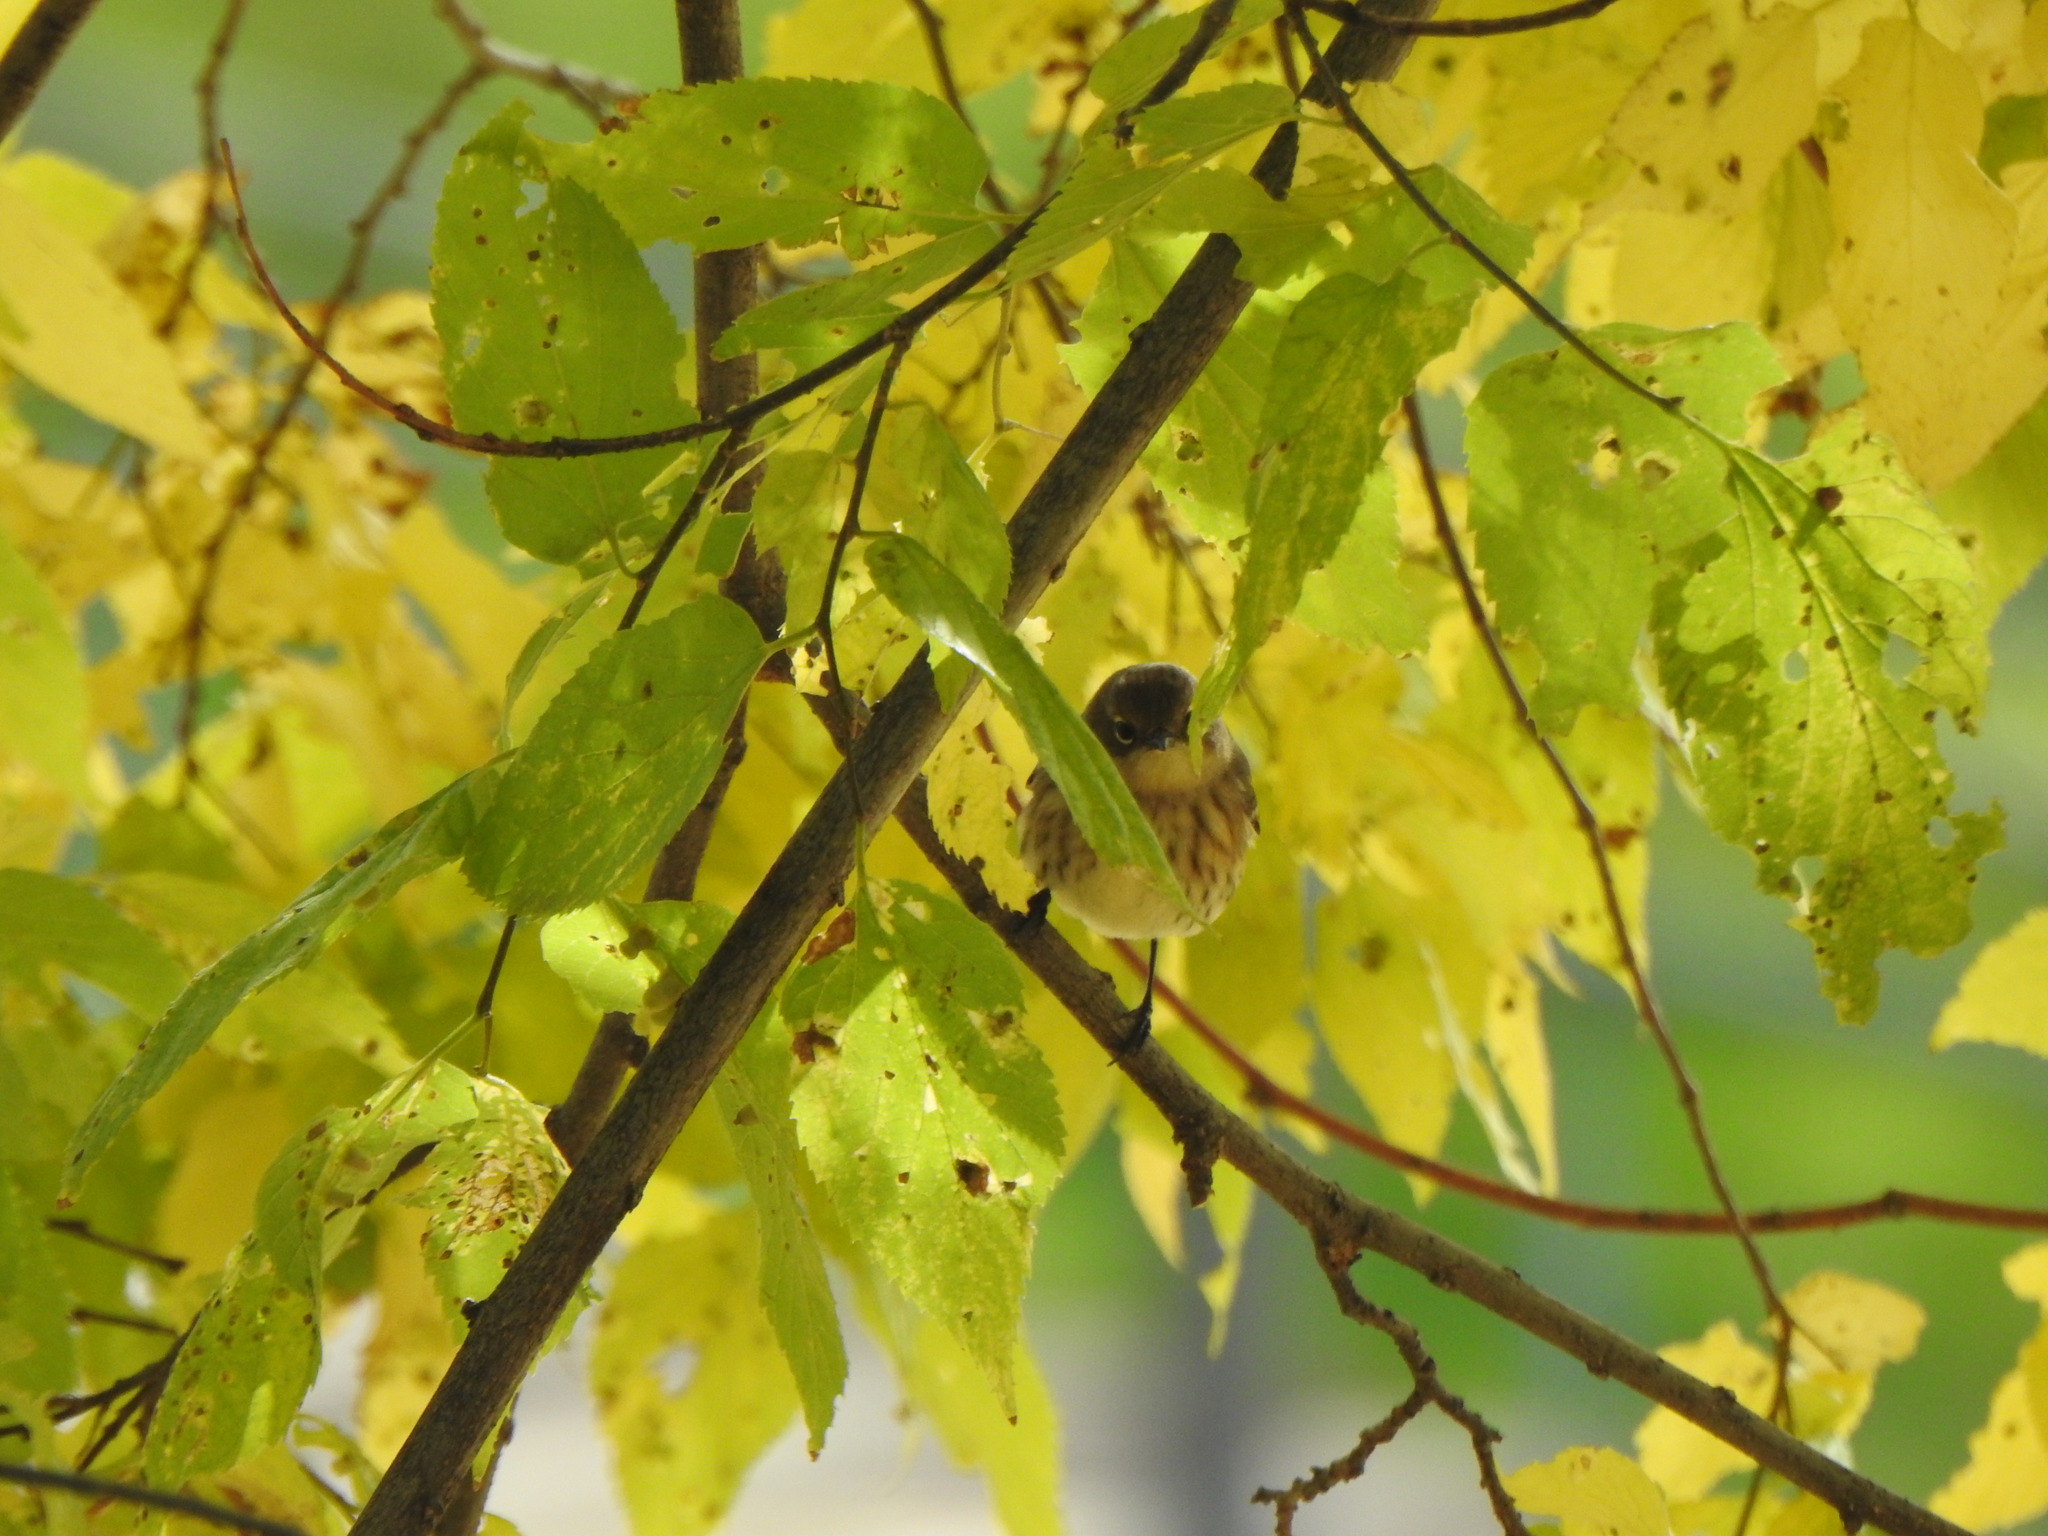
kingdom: Animalia
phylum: Chordata
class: Aves
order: Passeriformes
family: Parulidae
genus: Setophaga
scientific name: Setophaga coronata
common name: Myrtle warbler
